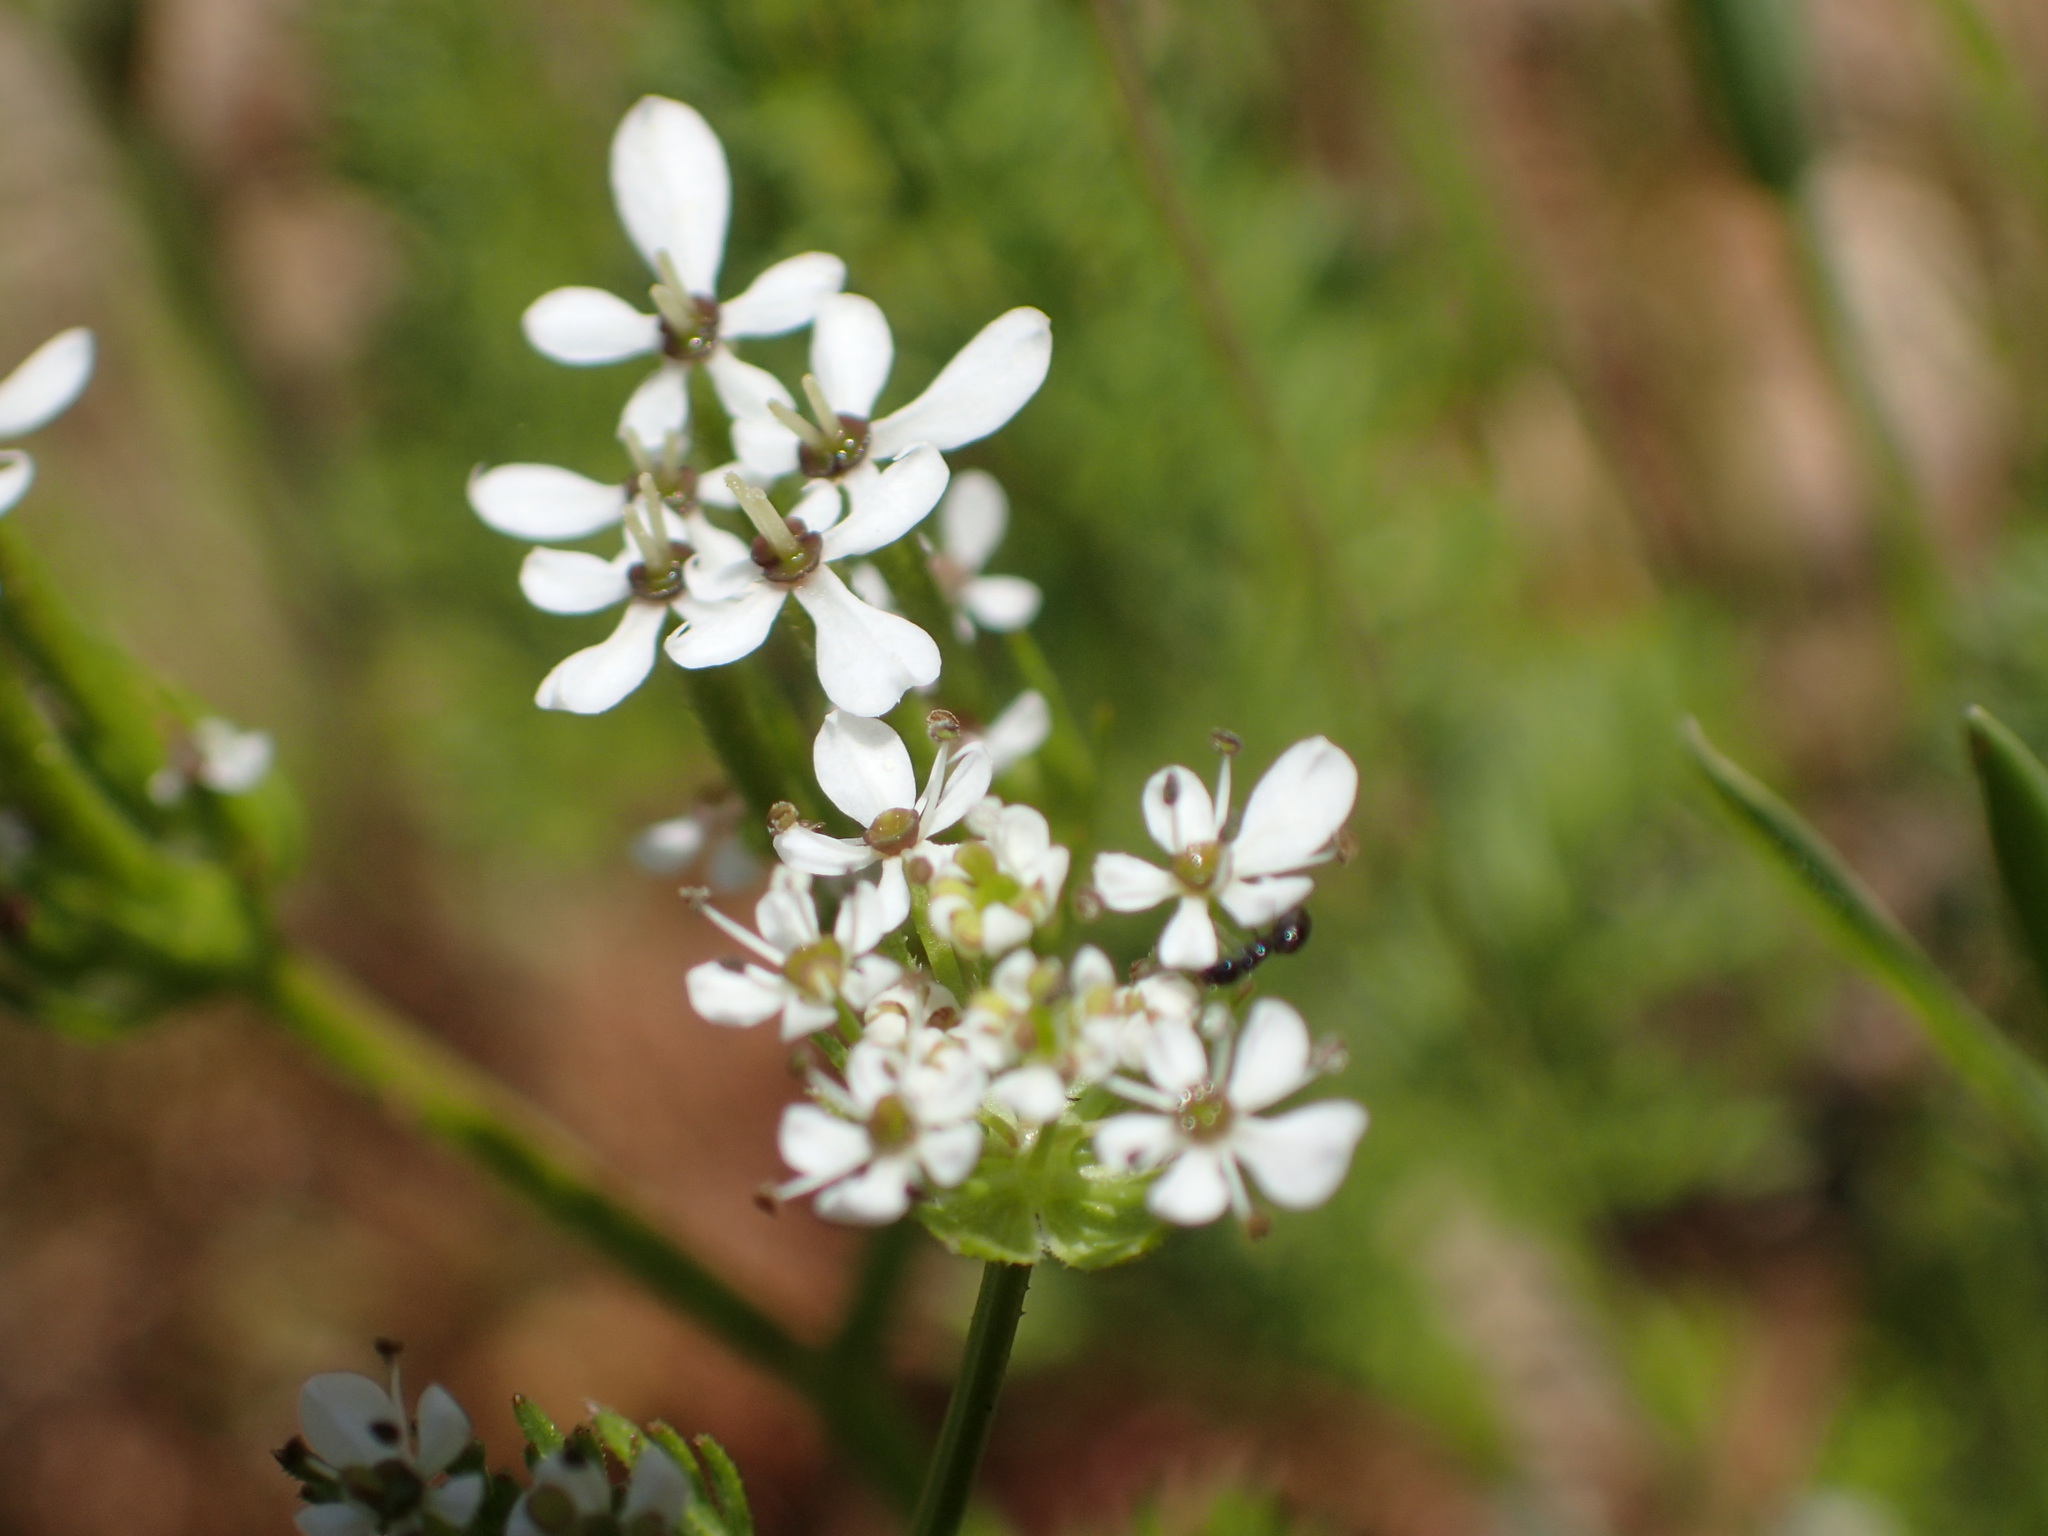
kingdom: Plantae
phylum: Tracheophyta
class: Magnoliopsida
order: Apiales
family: Apiaceae
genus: Scandix
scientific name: Scandix pecten-veneris
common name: Shepherd's-needle
